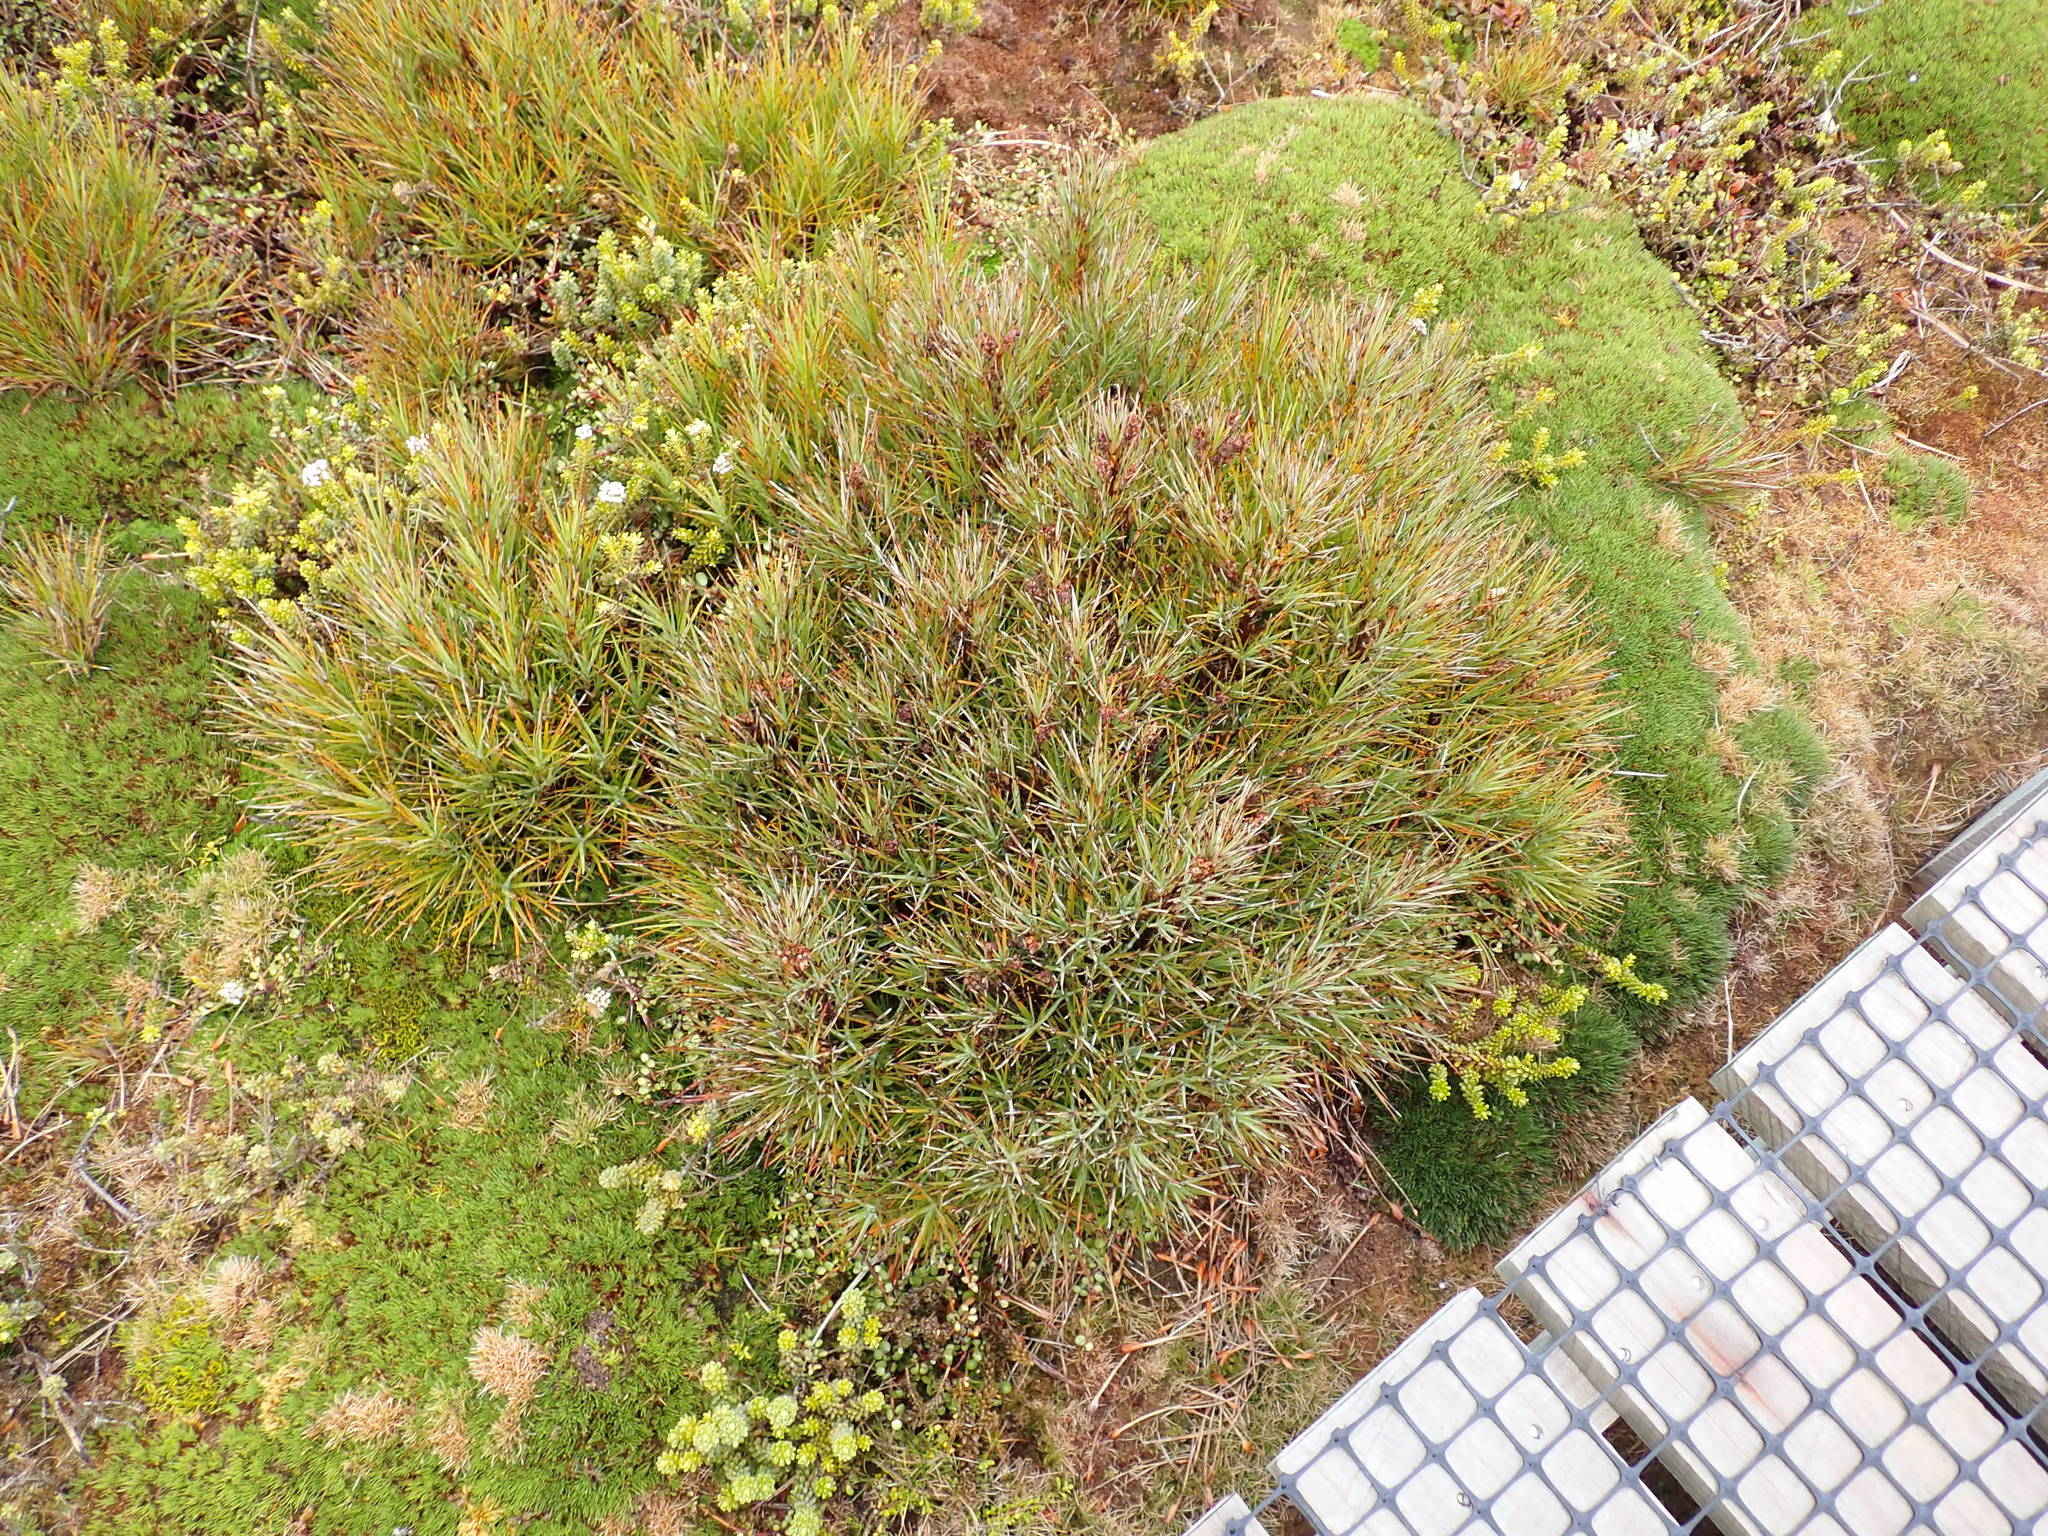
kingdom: Plantae
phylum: Tracheophyta
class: Magnoliopsida
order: Ericales
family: Ericaceae
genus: Dracophyllum
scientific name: Dracophyllum cockayneanum
